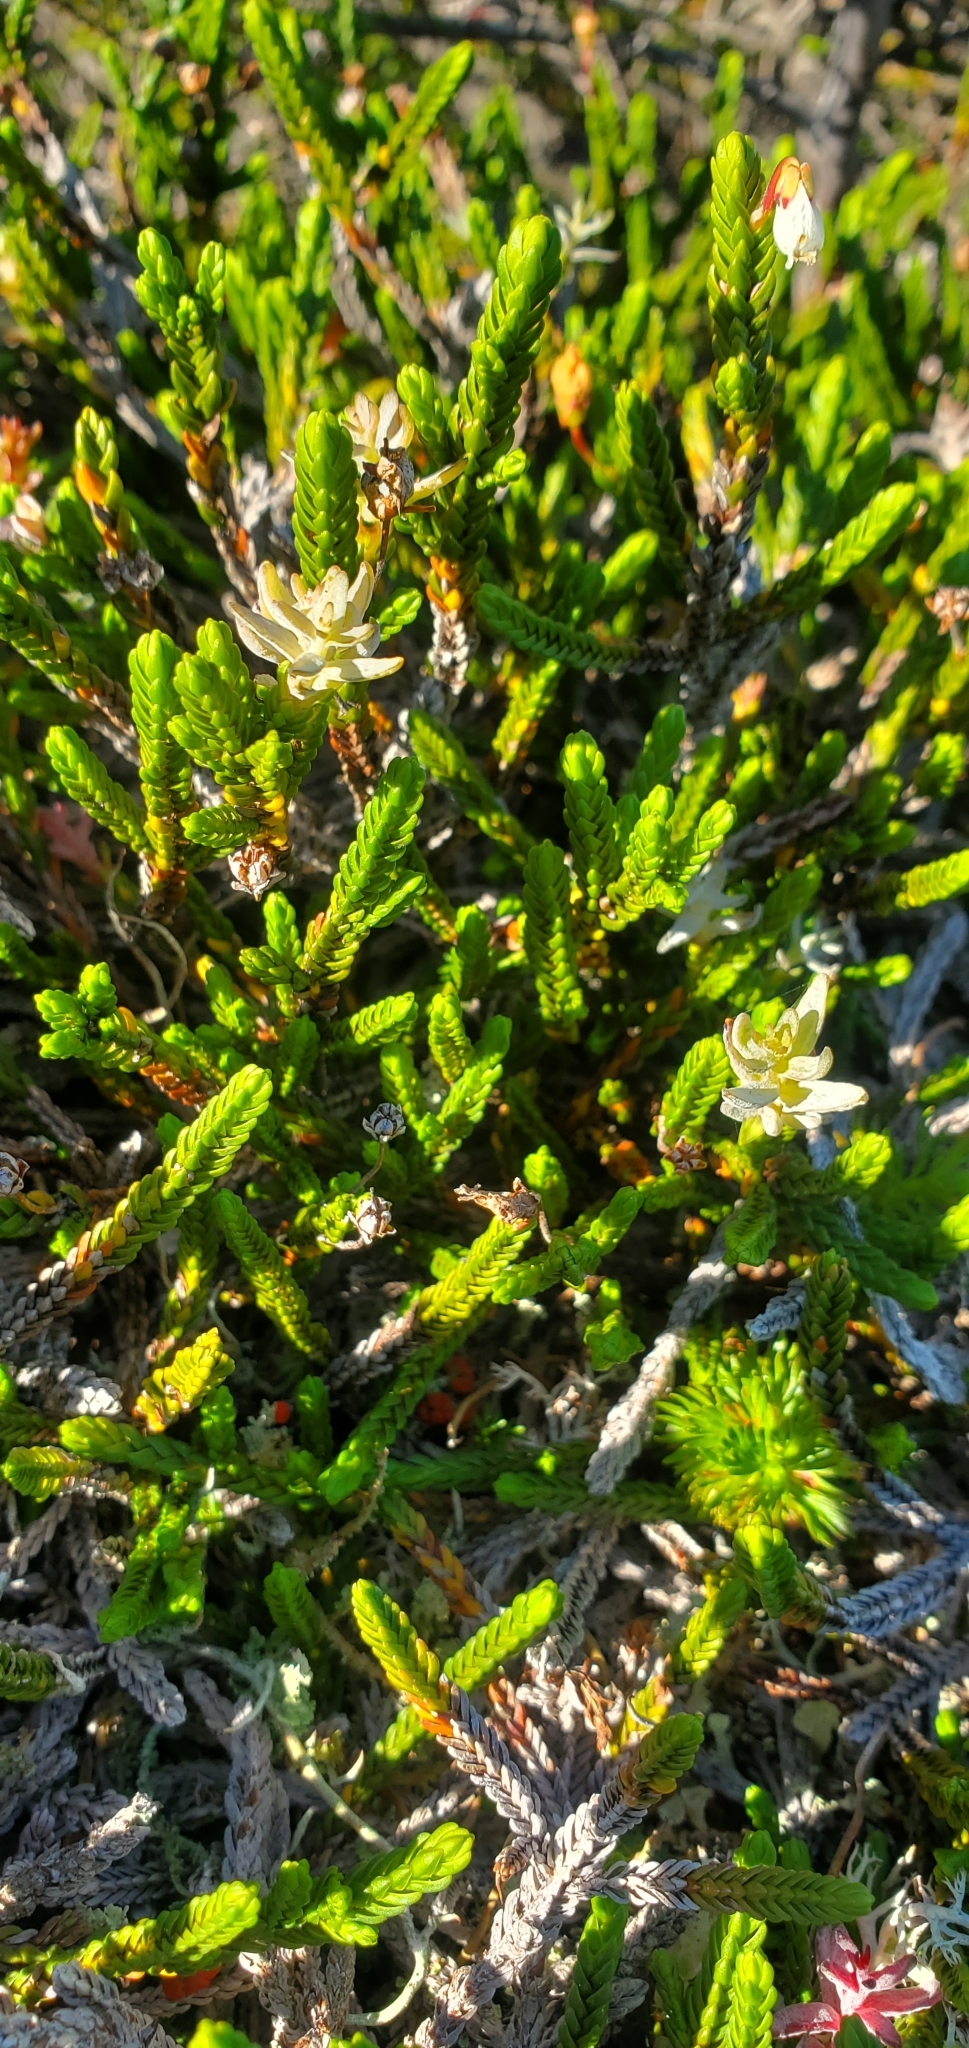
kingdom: Fungi
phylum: Basidiomycota
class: Exobasidiomycetes
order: Exobasidiales
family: Exobasidiaceae
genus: Exobasidium
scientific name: Exobasidium cassiopes
